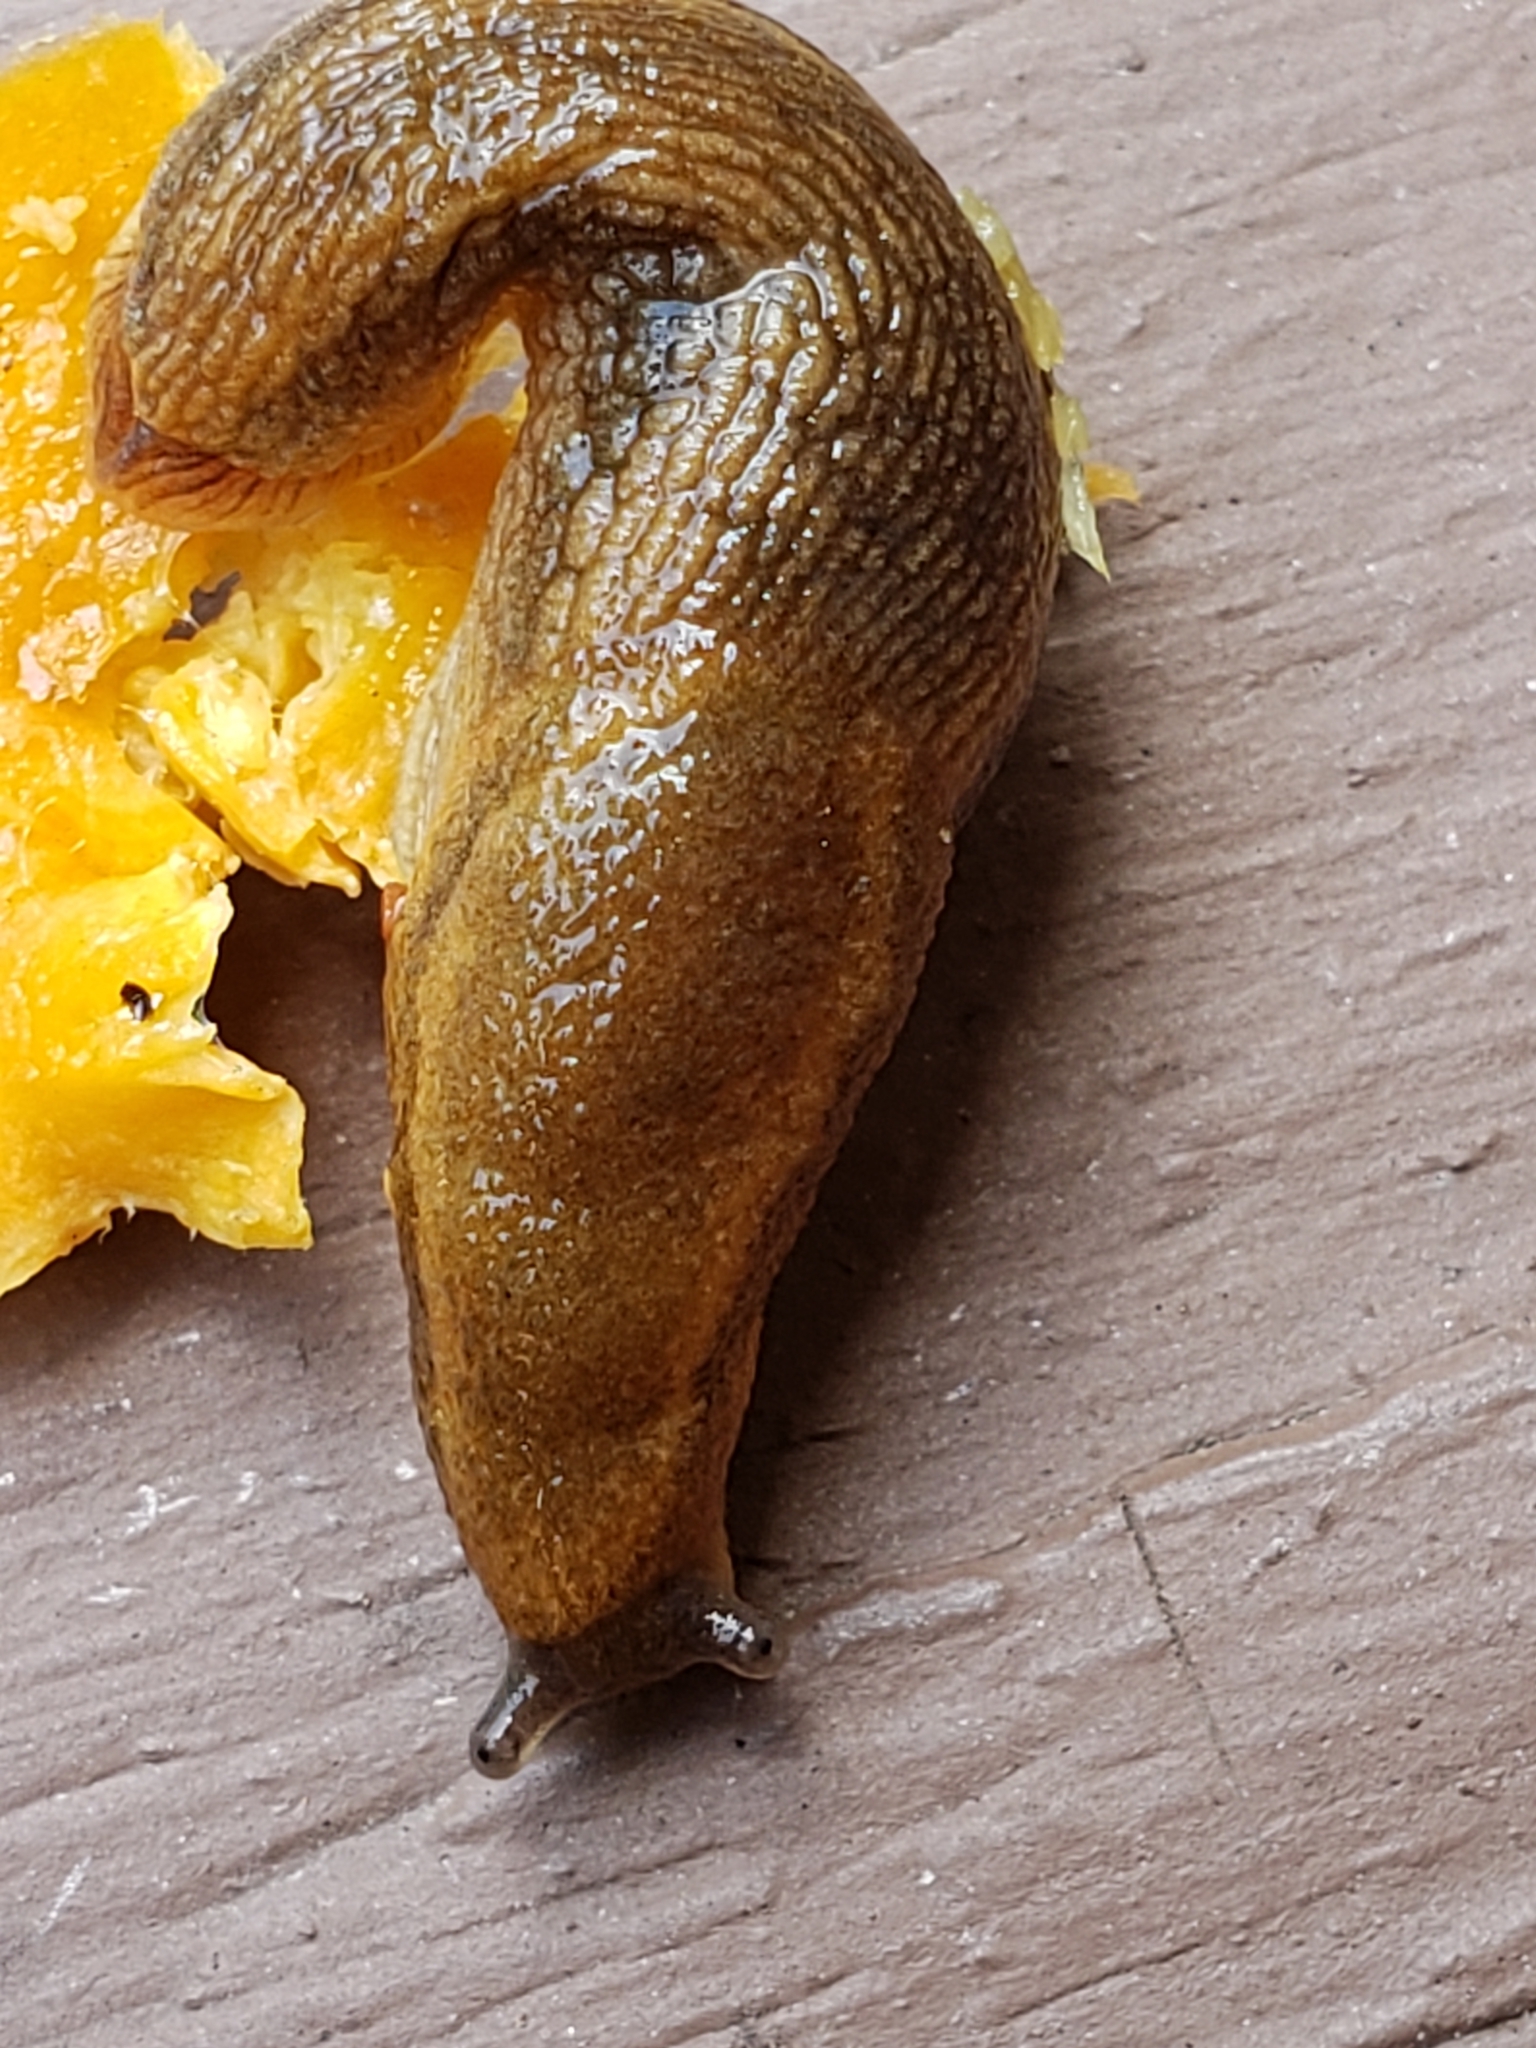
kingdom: Animalia
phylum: Mollusca
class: Gastropoda
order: Stylommatophora
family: Arionidae
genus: Arion
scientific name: Arion subfuscus
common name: Dusky arion
